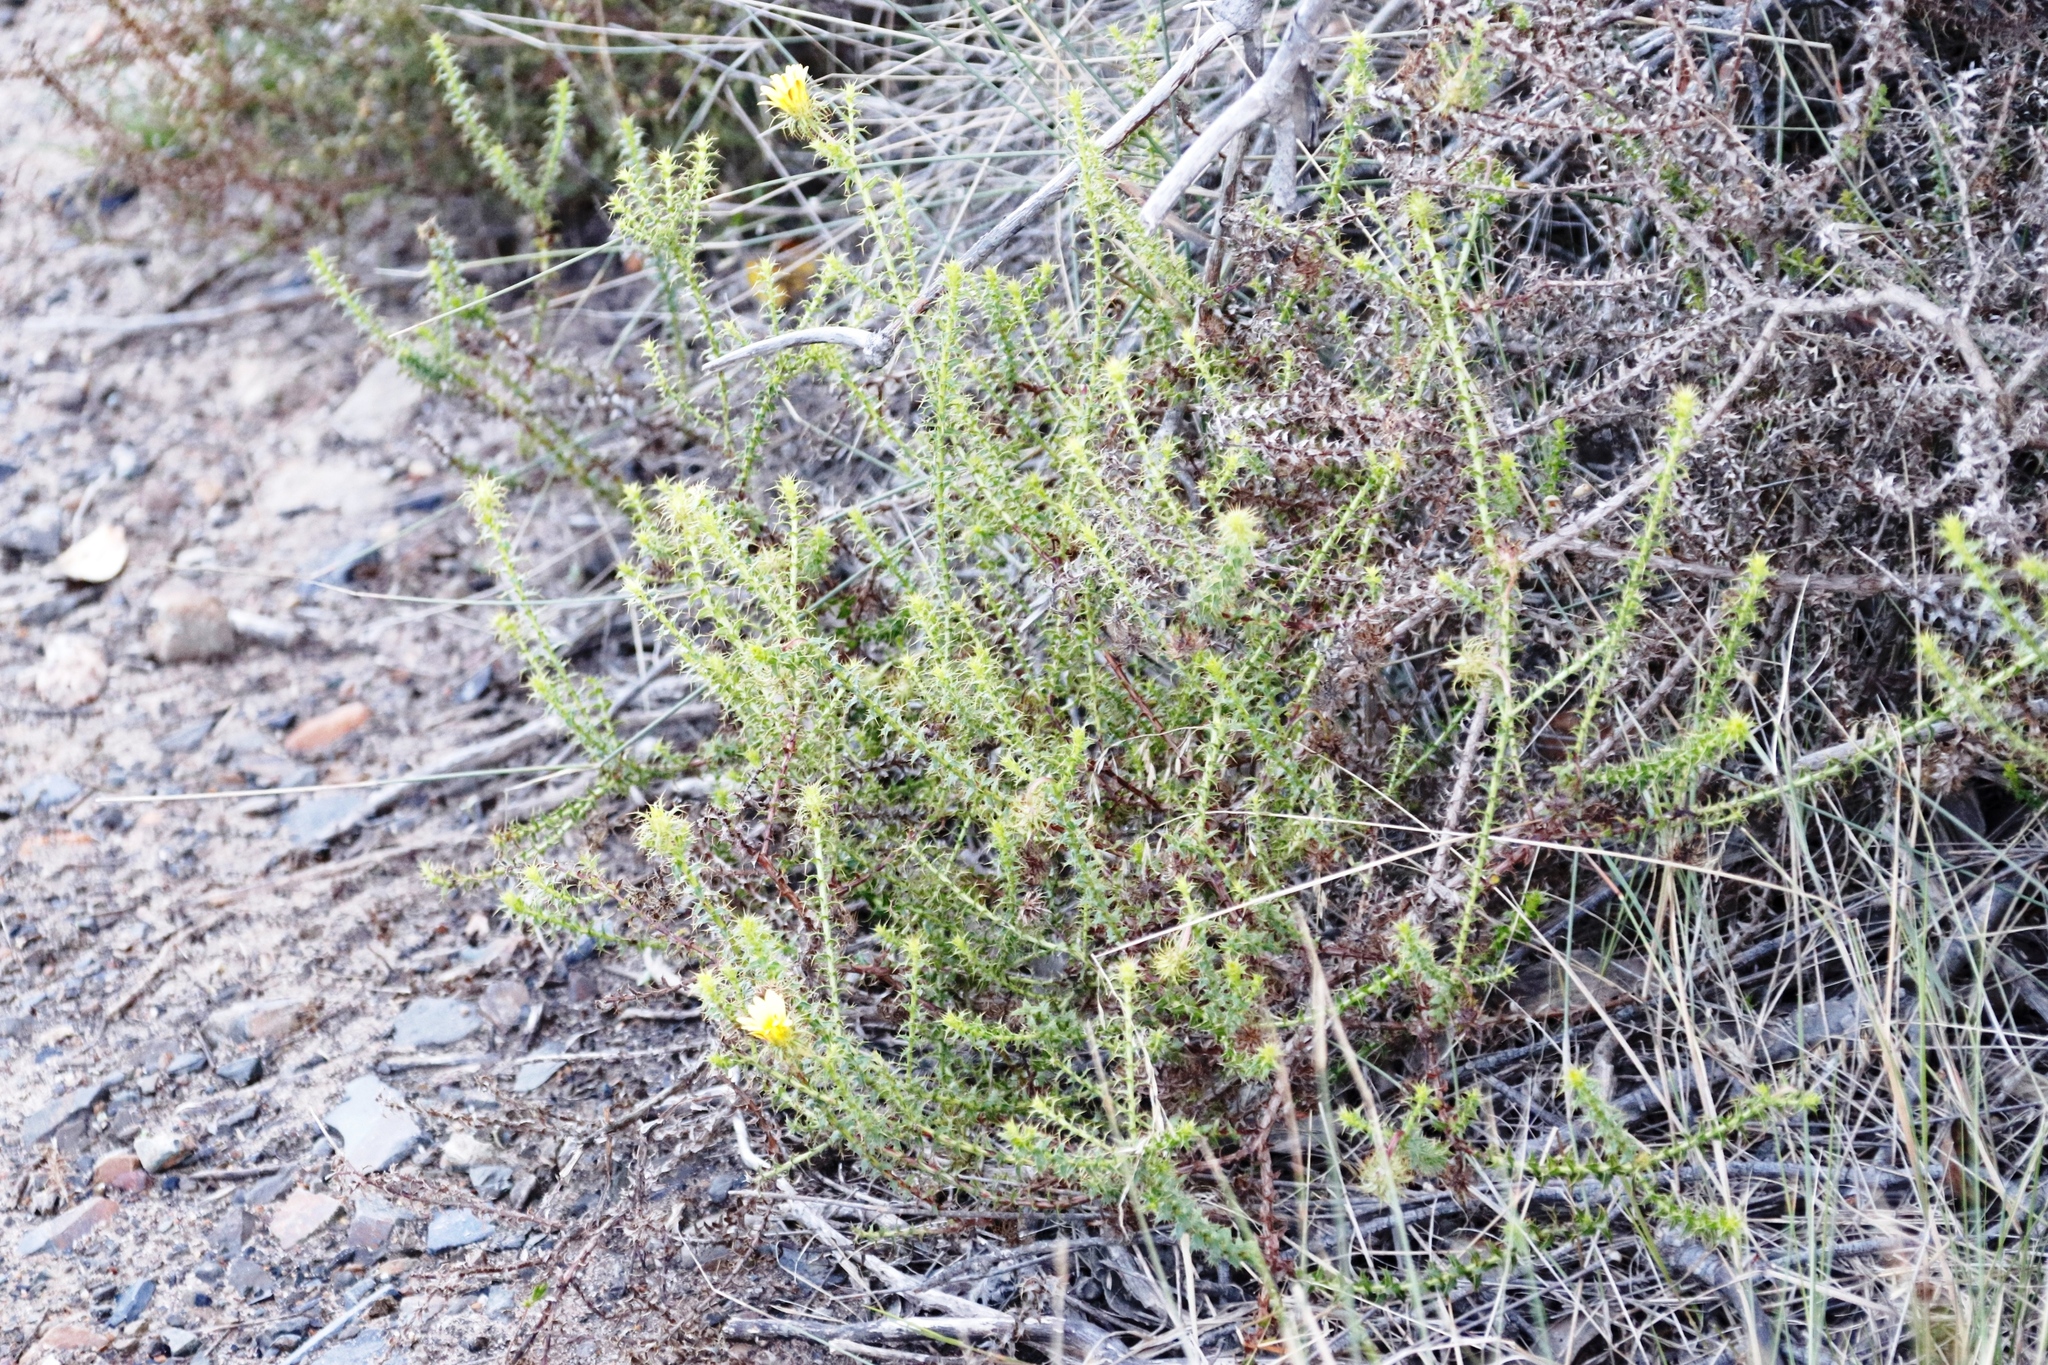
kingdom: Plantae
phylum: Tracheophyta
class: Magnoliopsida
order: Asterales
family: Asteraceae
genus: Cullumia
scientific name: Cullumia setosa
